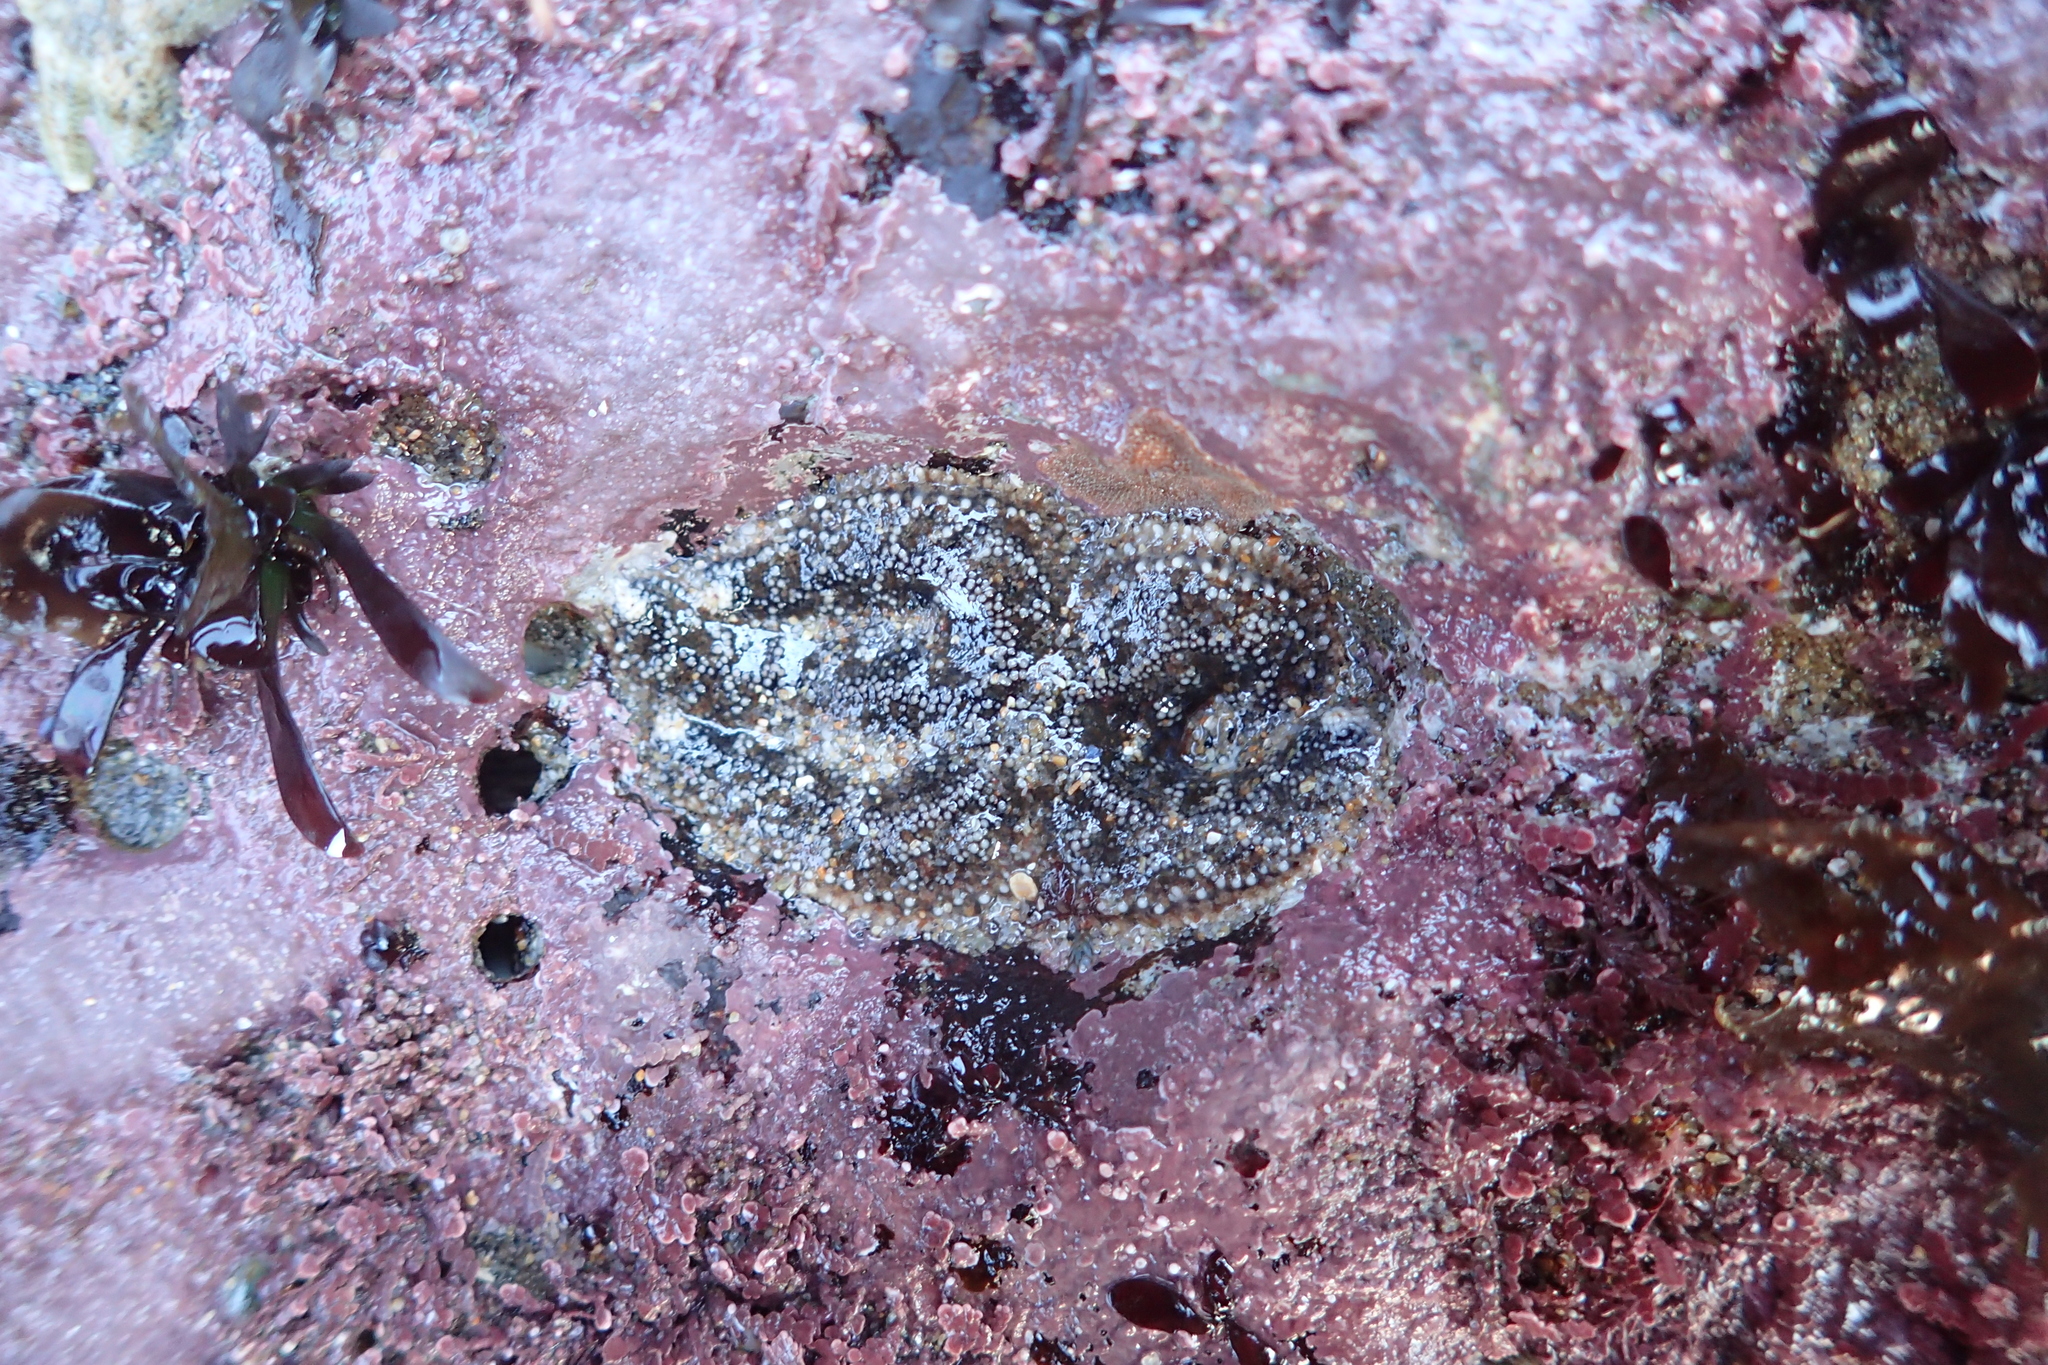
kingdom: Animalia
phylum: Echinodermata
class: Asteroidea
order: Forcipulatida
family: Asteriidae
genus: Pisaster
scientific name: Pisaster ochraceus
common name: Ochre stars
